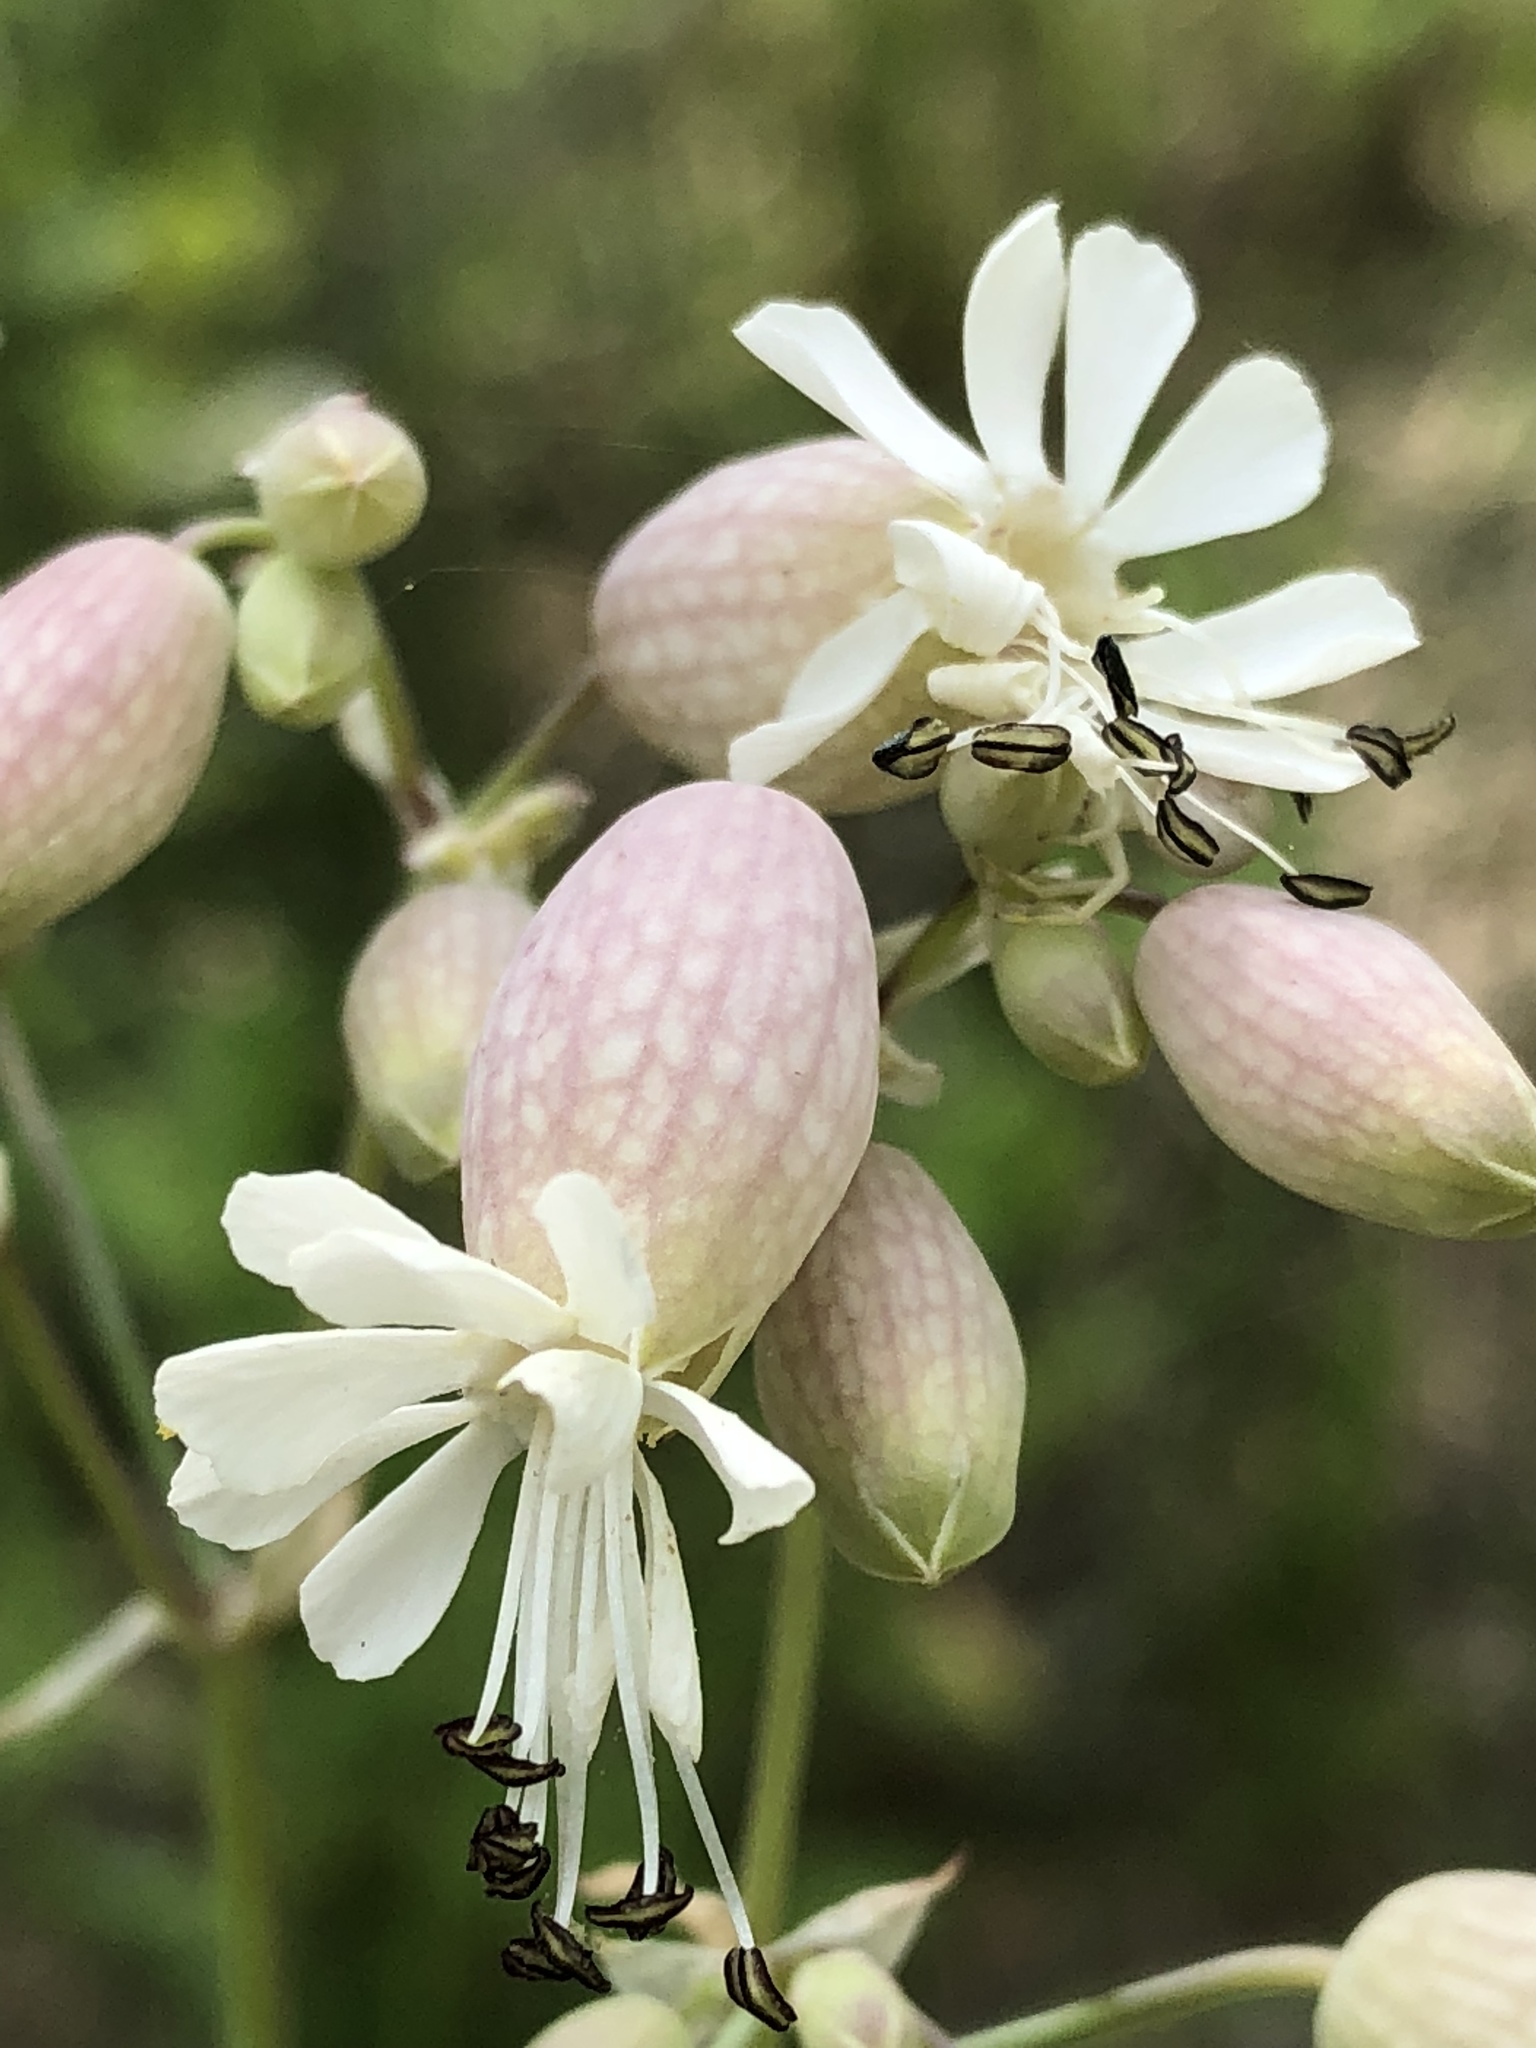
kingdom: Plantae
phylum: Tracheophyta
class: Magnoliopsida
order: Caryophyllales
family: Caryophyllaceae
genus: Silene
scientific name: Silene vulgaris
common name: Bladder campion
